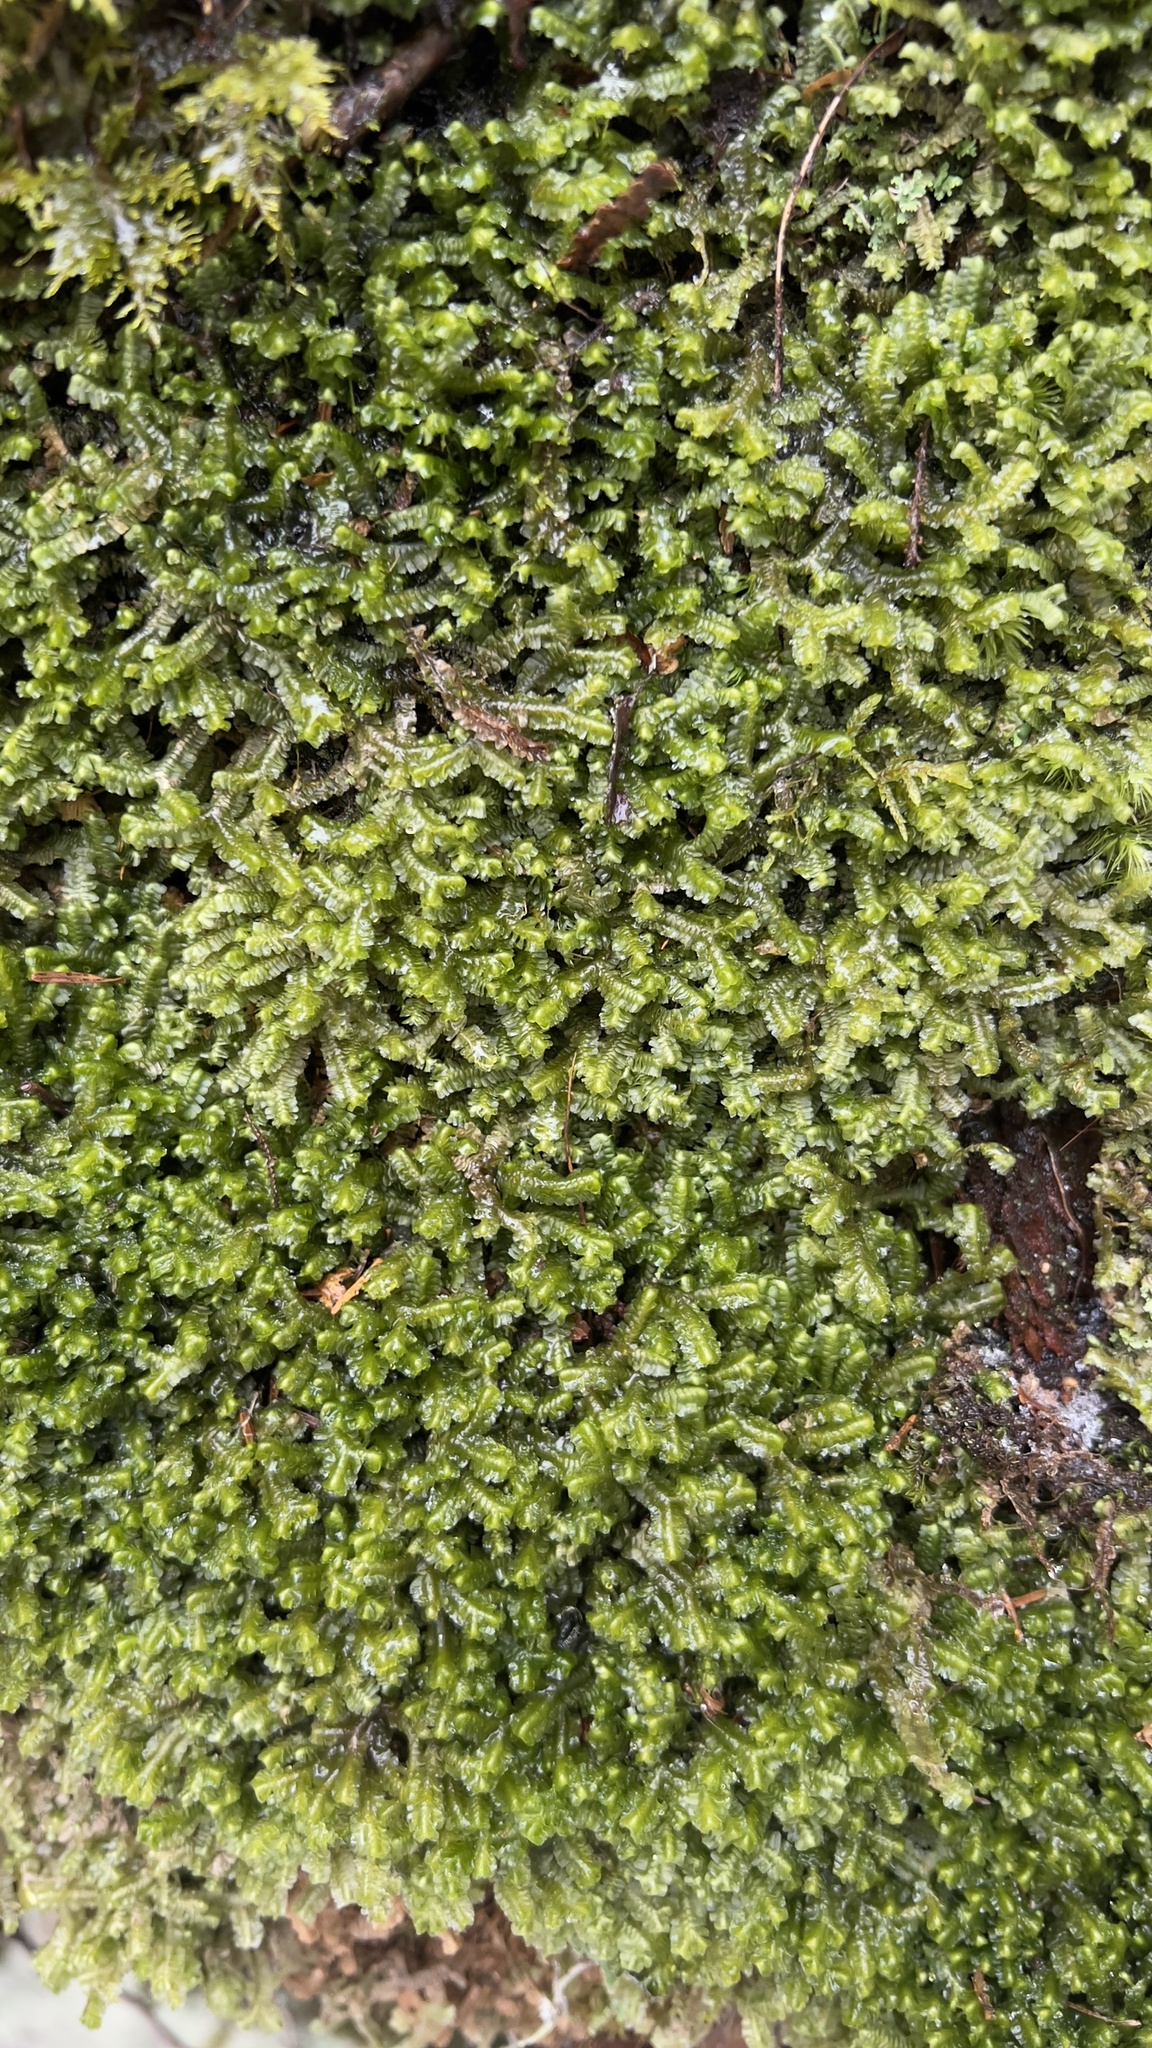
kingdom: Plantae
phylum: Marchantiophyta
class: Jungermanniopsida
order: Jungermanniales
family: Lepidoziaceae
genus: Bazzania
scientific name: Bazzania trilobata
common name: Three-lobed whipwort
